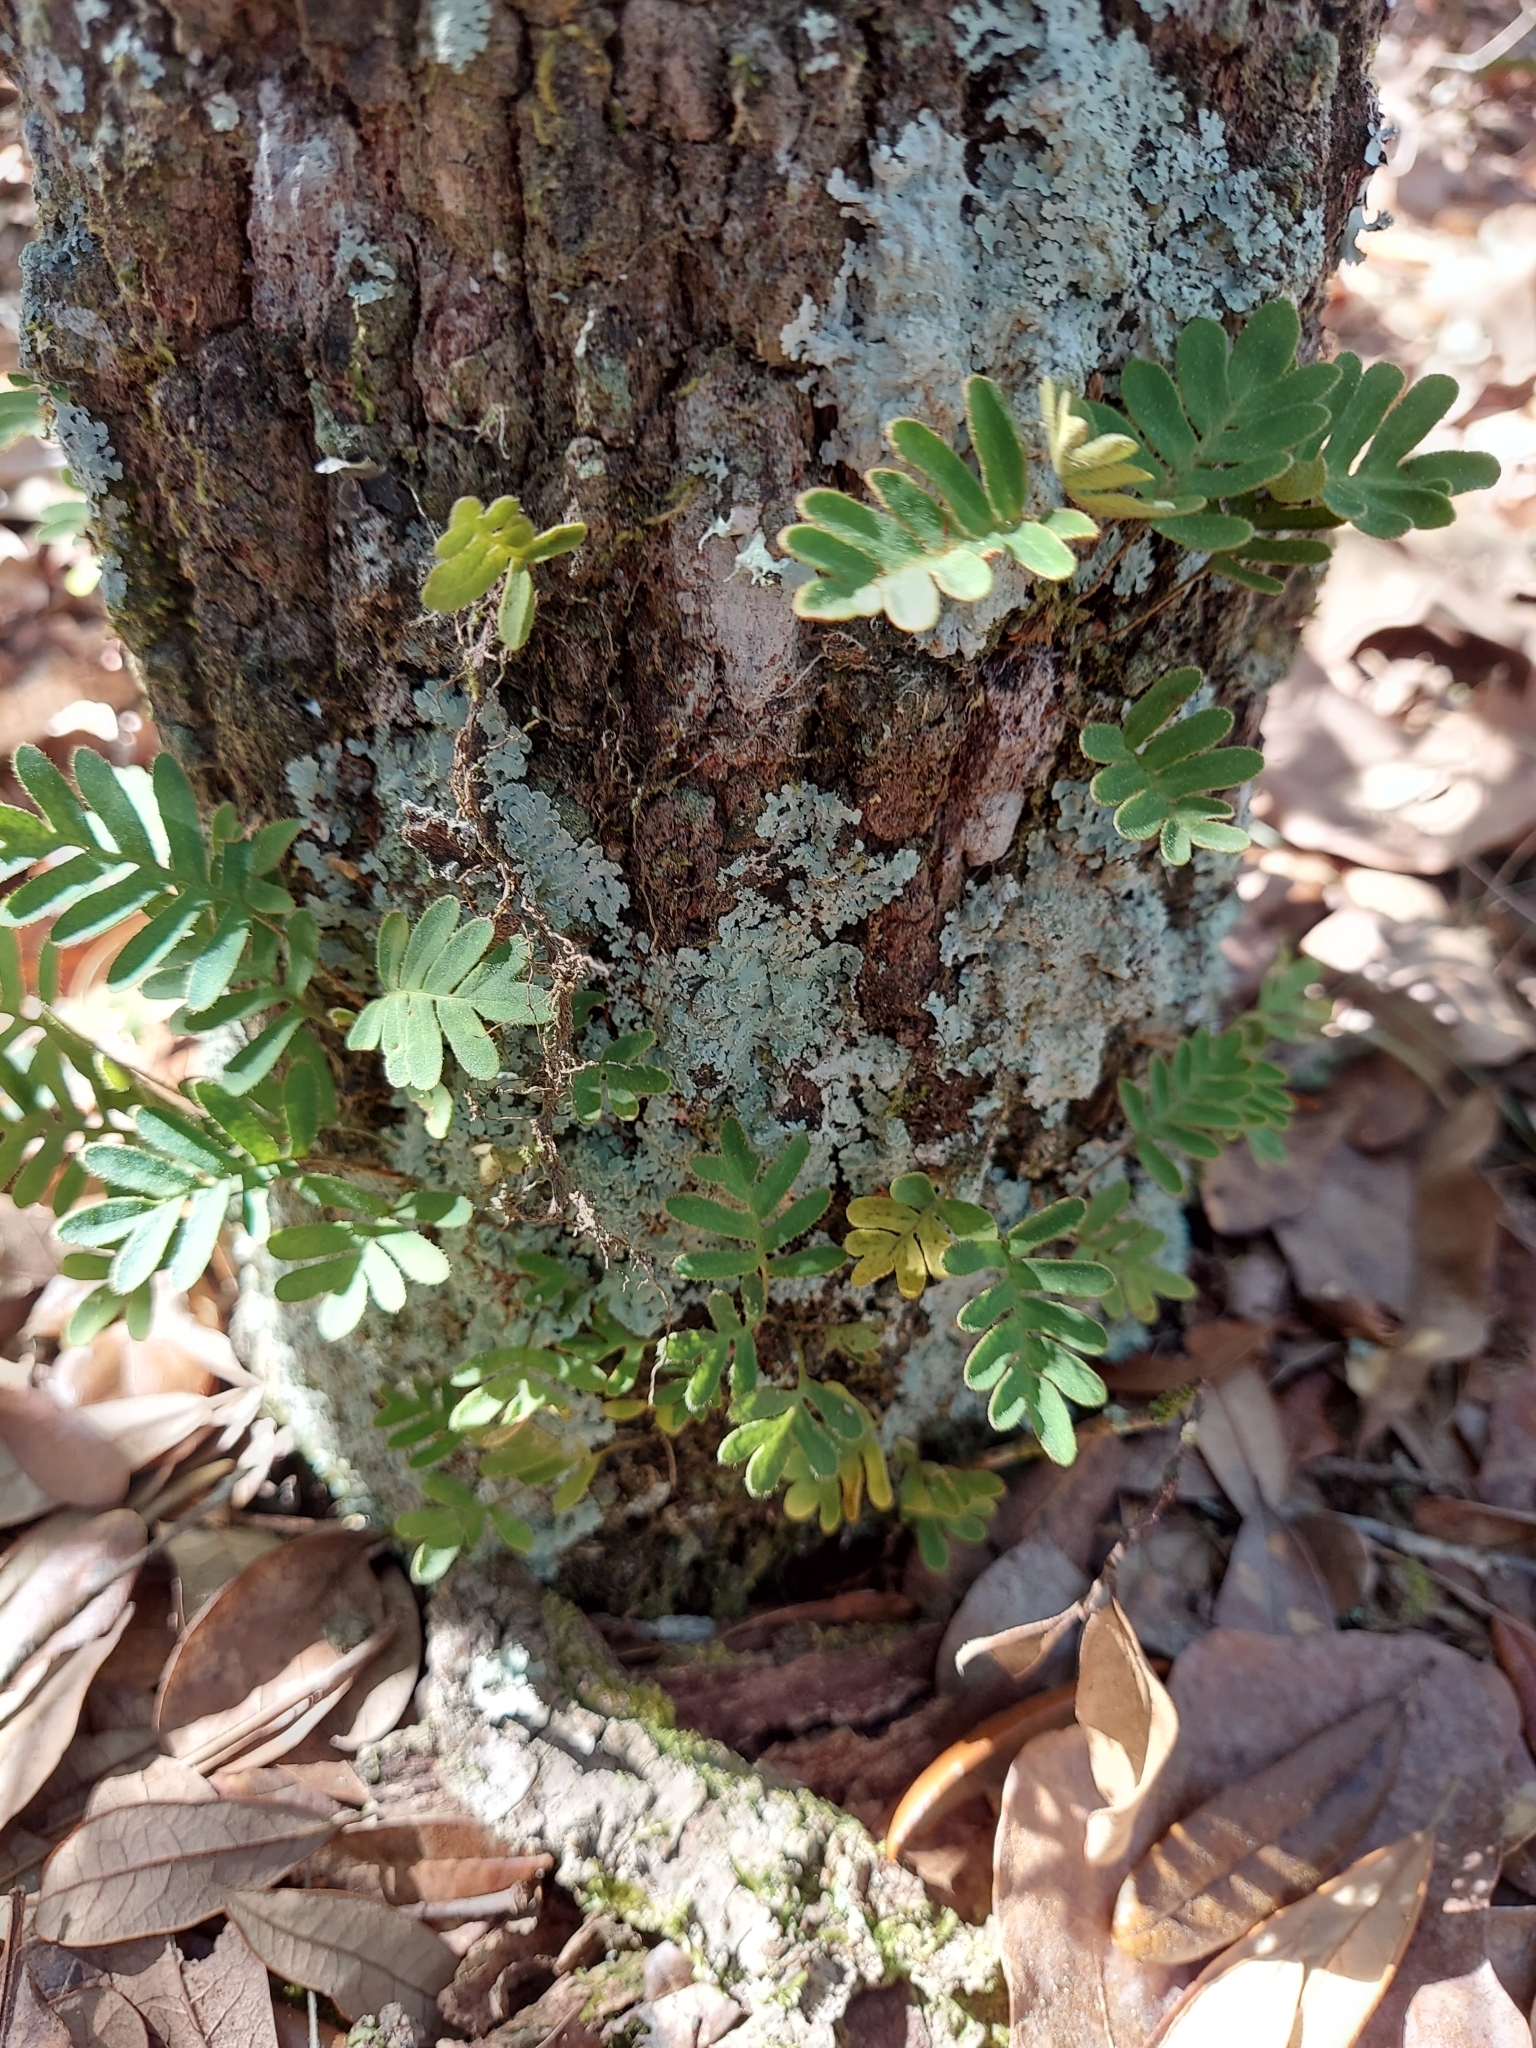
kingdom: Plantae
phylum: Tracheophyta
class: Polypodiopsida
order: Polypodiales
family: Polypodiaceae
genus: Pleopeltis
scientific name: Pleopeltis michauxiana
